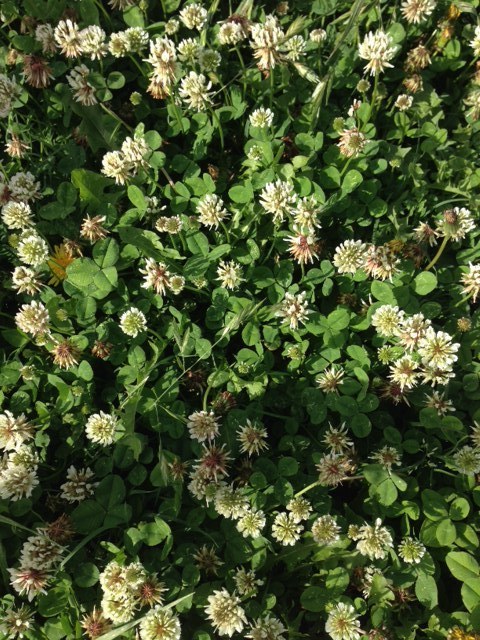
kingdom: Plantae
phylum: Tracheophyta
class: Magnoliopsida
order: Fabales
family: Fabaceae
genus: Trifolium
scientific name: Trifolium repens
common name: White clover
